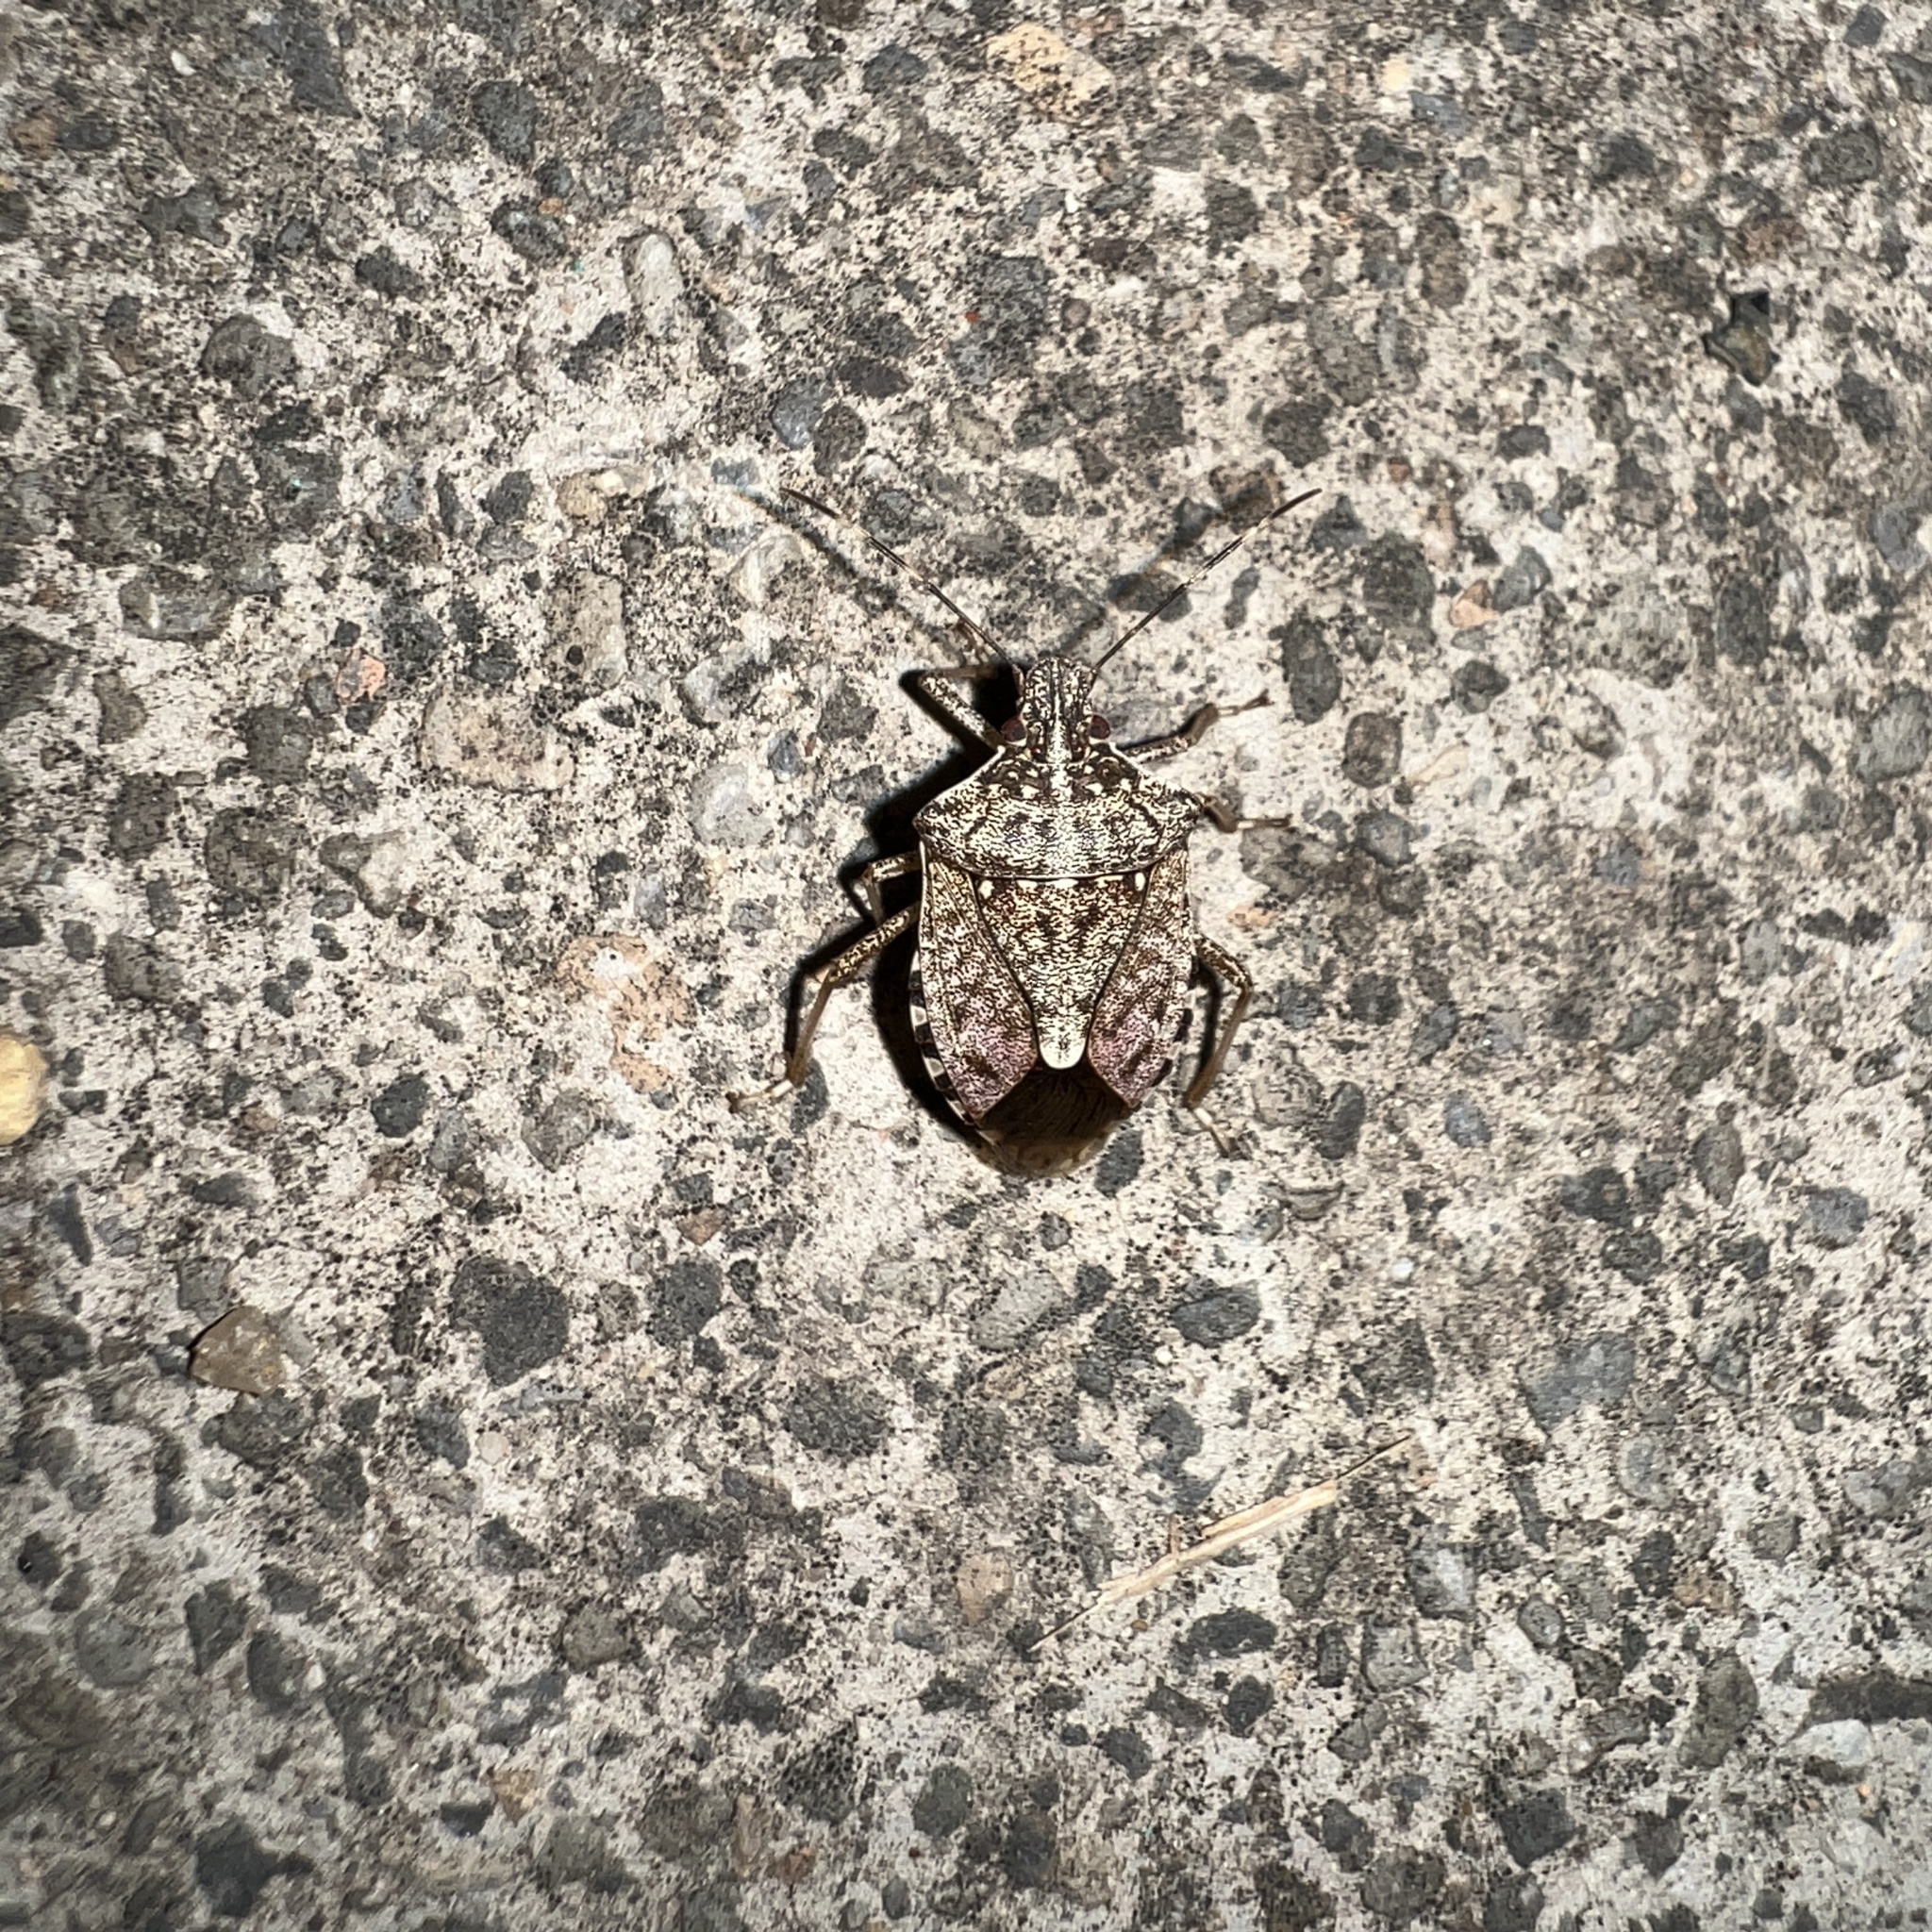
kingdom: Animalia
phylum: Arthropoda
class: Insecta
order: Hemiptera
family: Pentatomidae
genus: Halyomorpha
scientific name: Halyomorpha halys
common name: Brown marmorated stink bug
